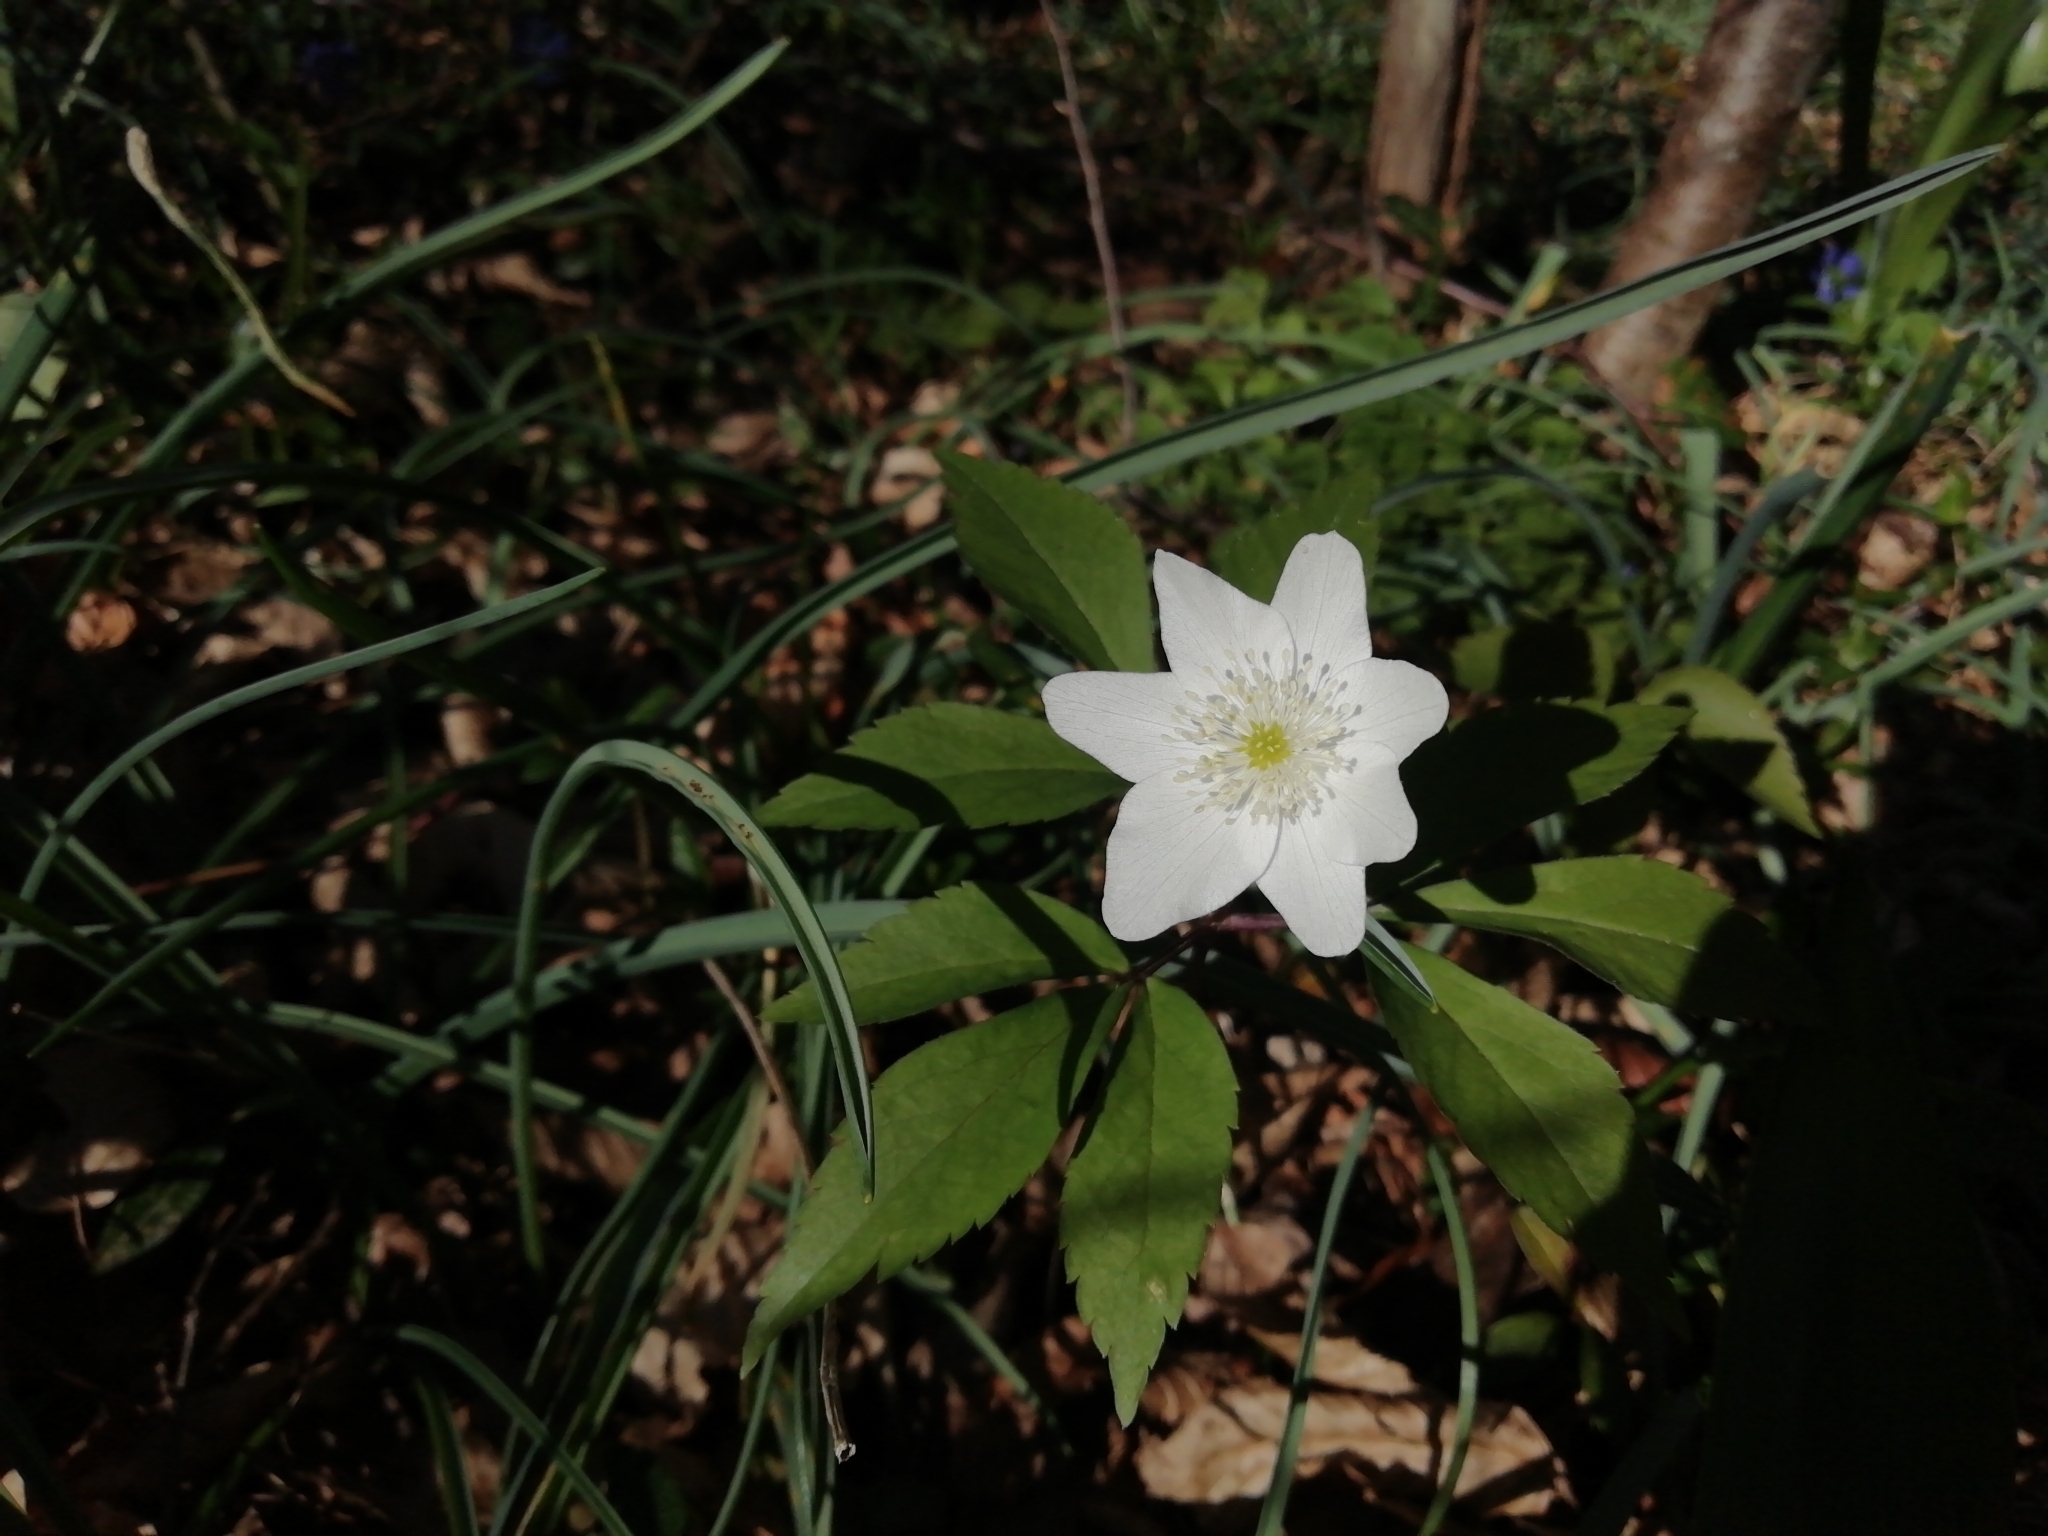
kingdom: Plantae
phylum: Tracheophyta
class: Magnoliopsida
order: Ranunculales
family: Ranunculaceae
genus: Anemone
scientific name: Anemone trifolia
